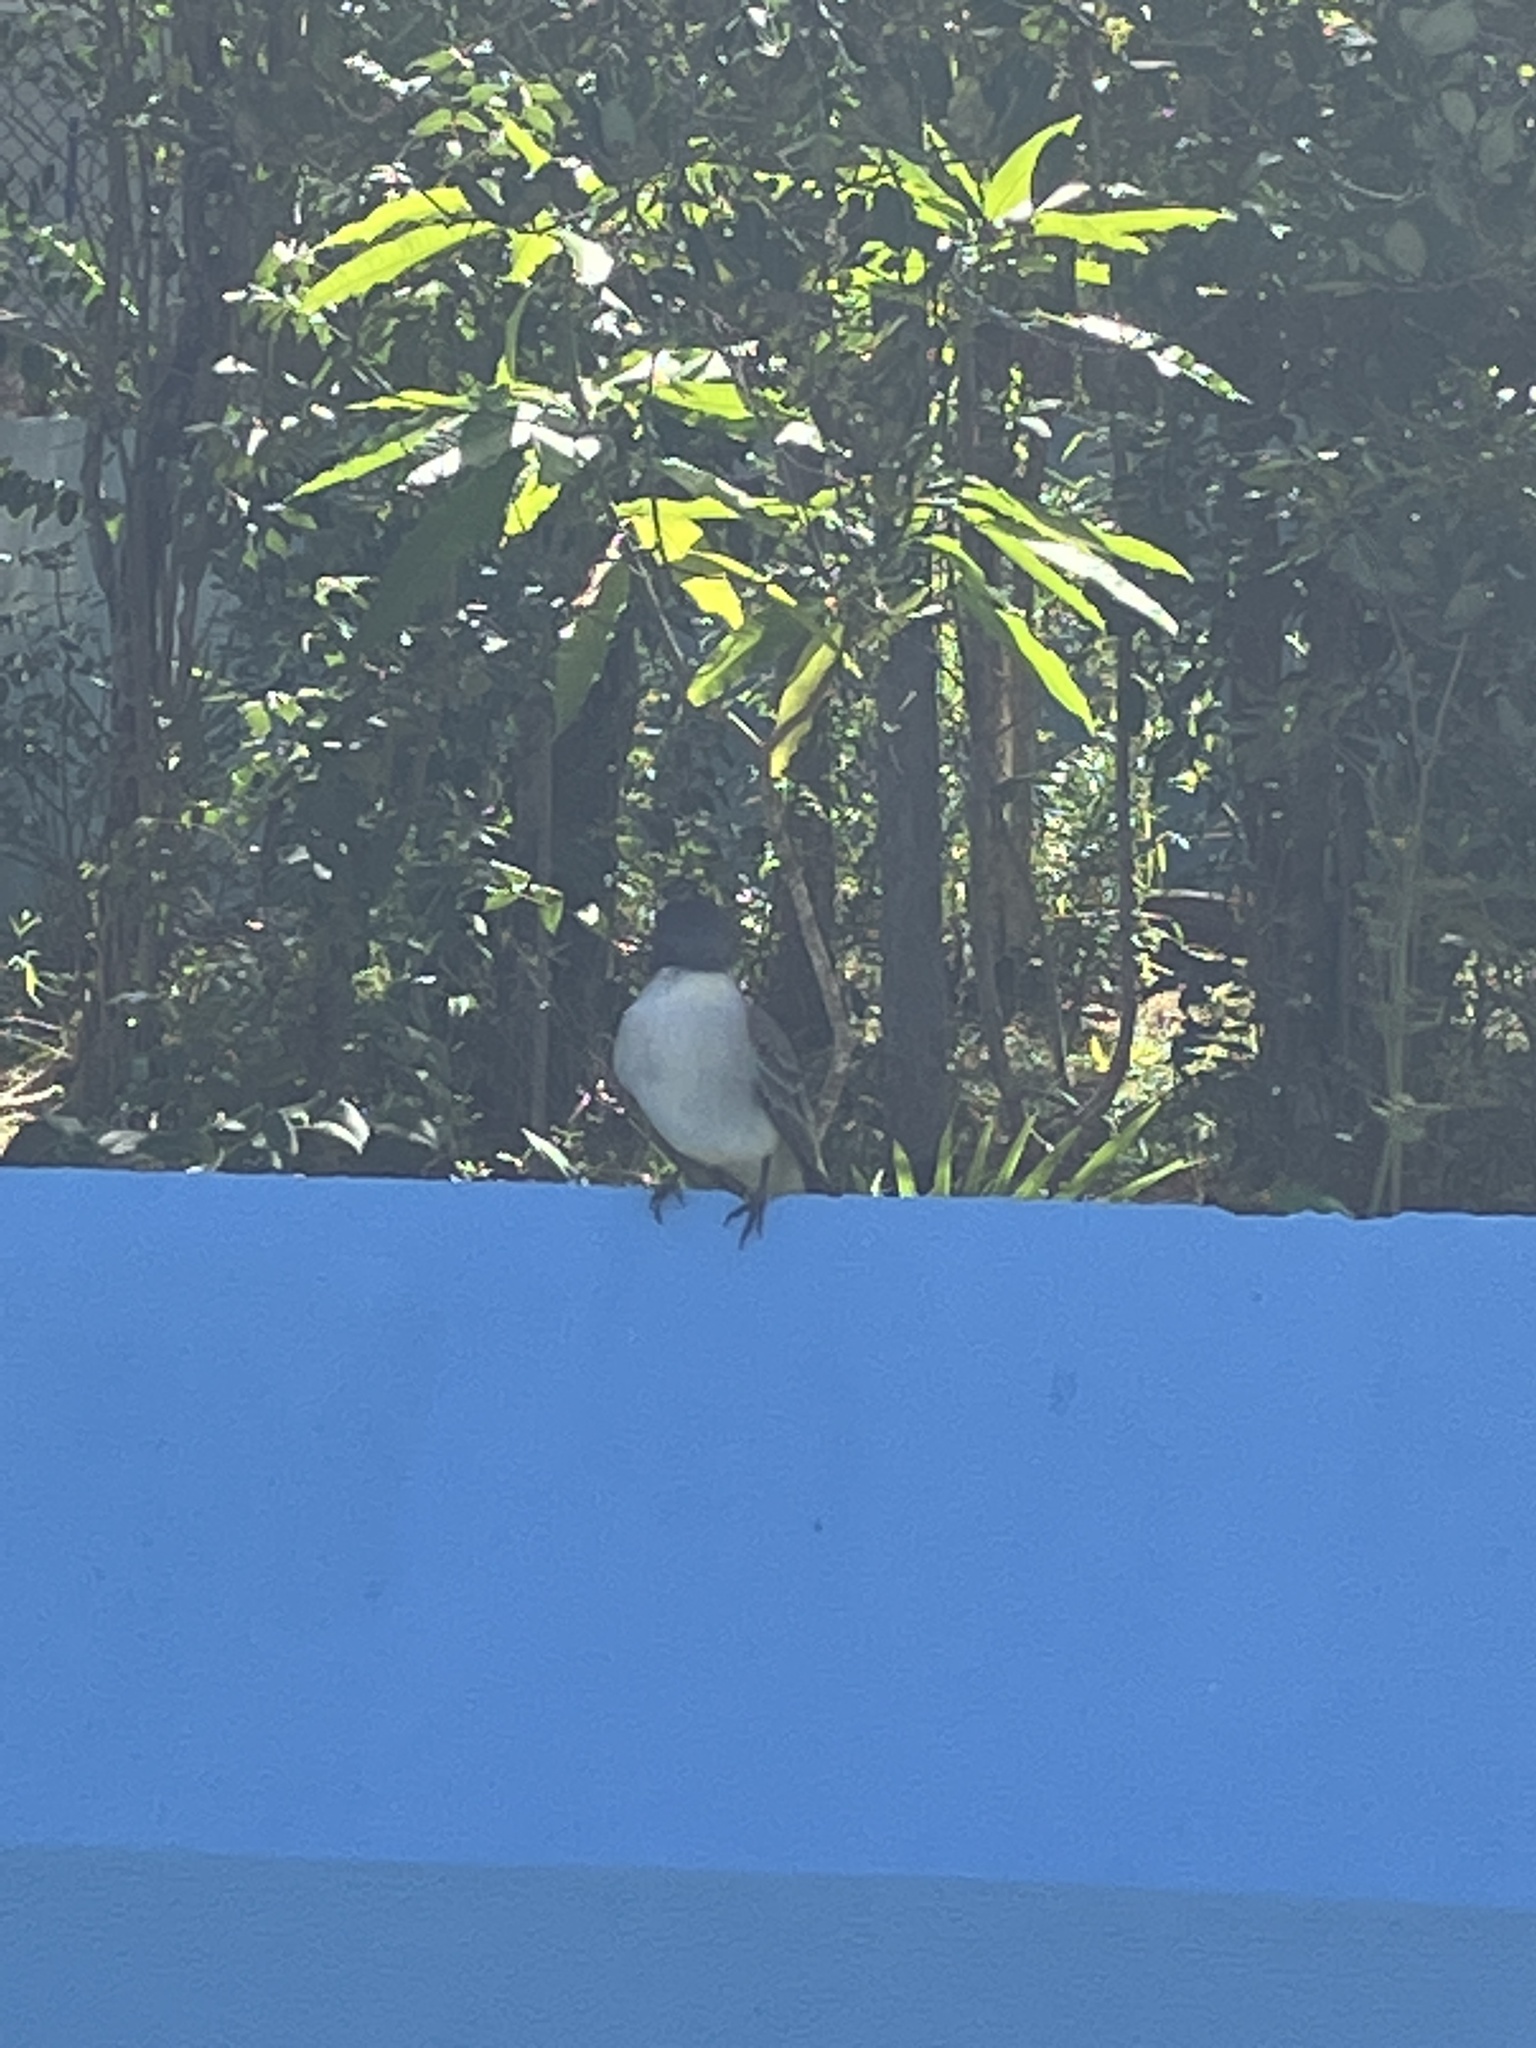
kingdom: Animalia
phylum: Chordata
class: Aves
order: Passeriformes
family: Tyrannidae
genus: Tyrannus
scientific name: Tyrannus caudifasciatus
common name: Loggerhead kingbird
